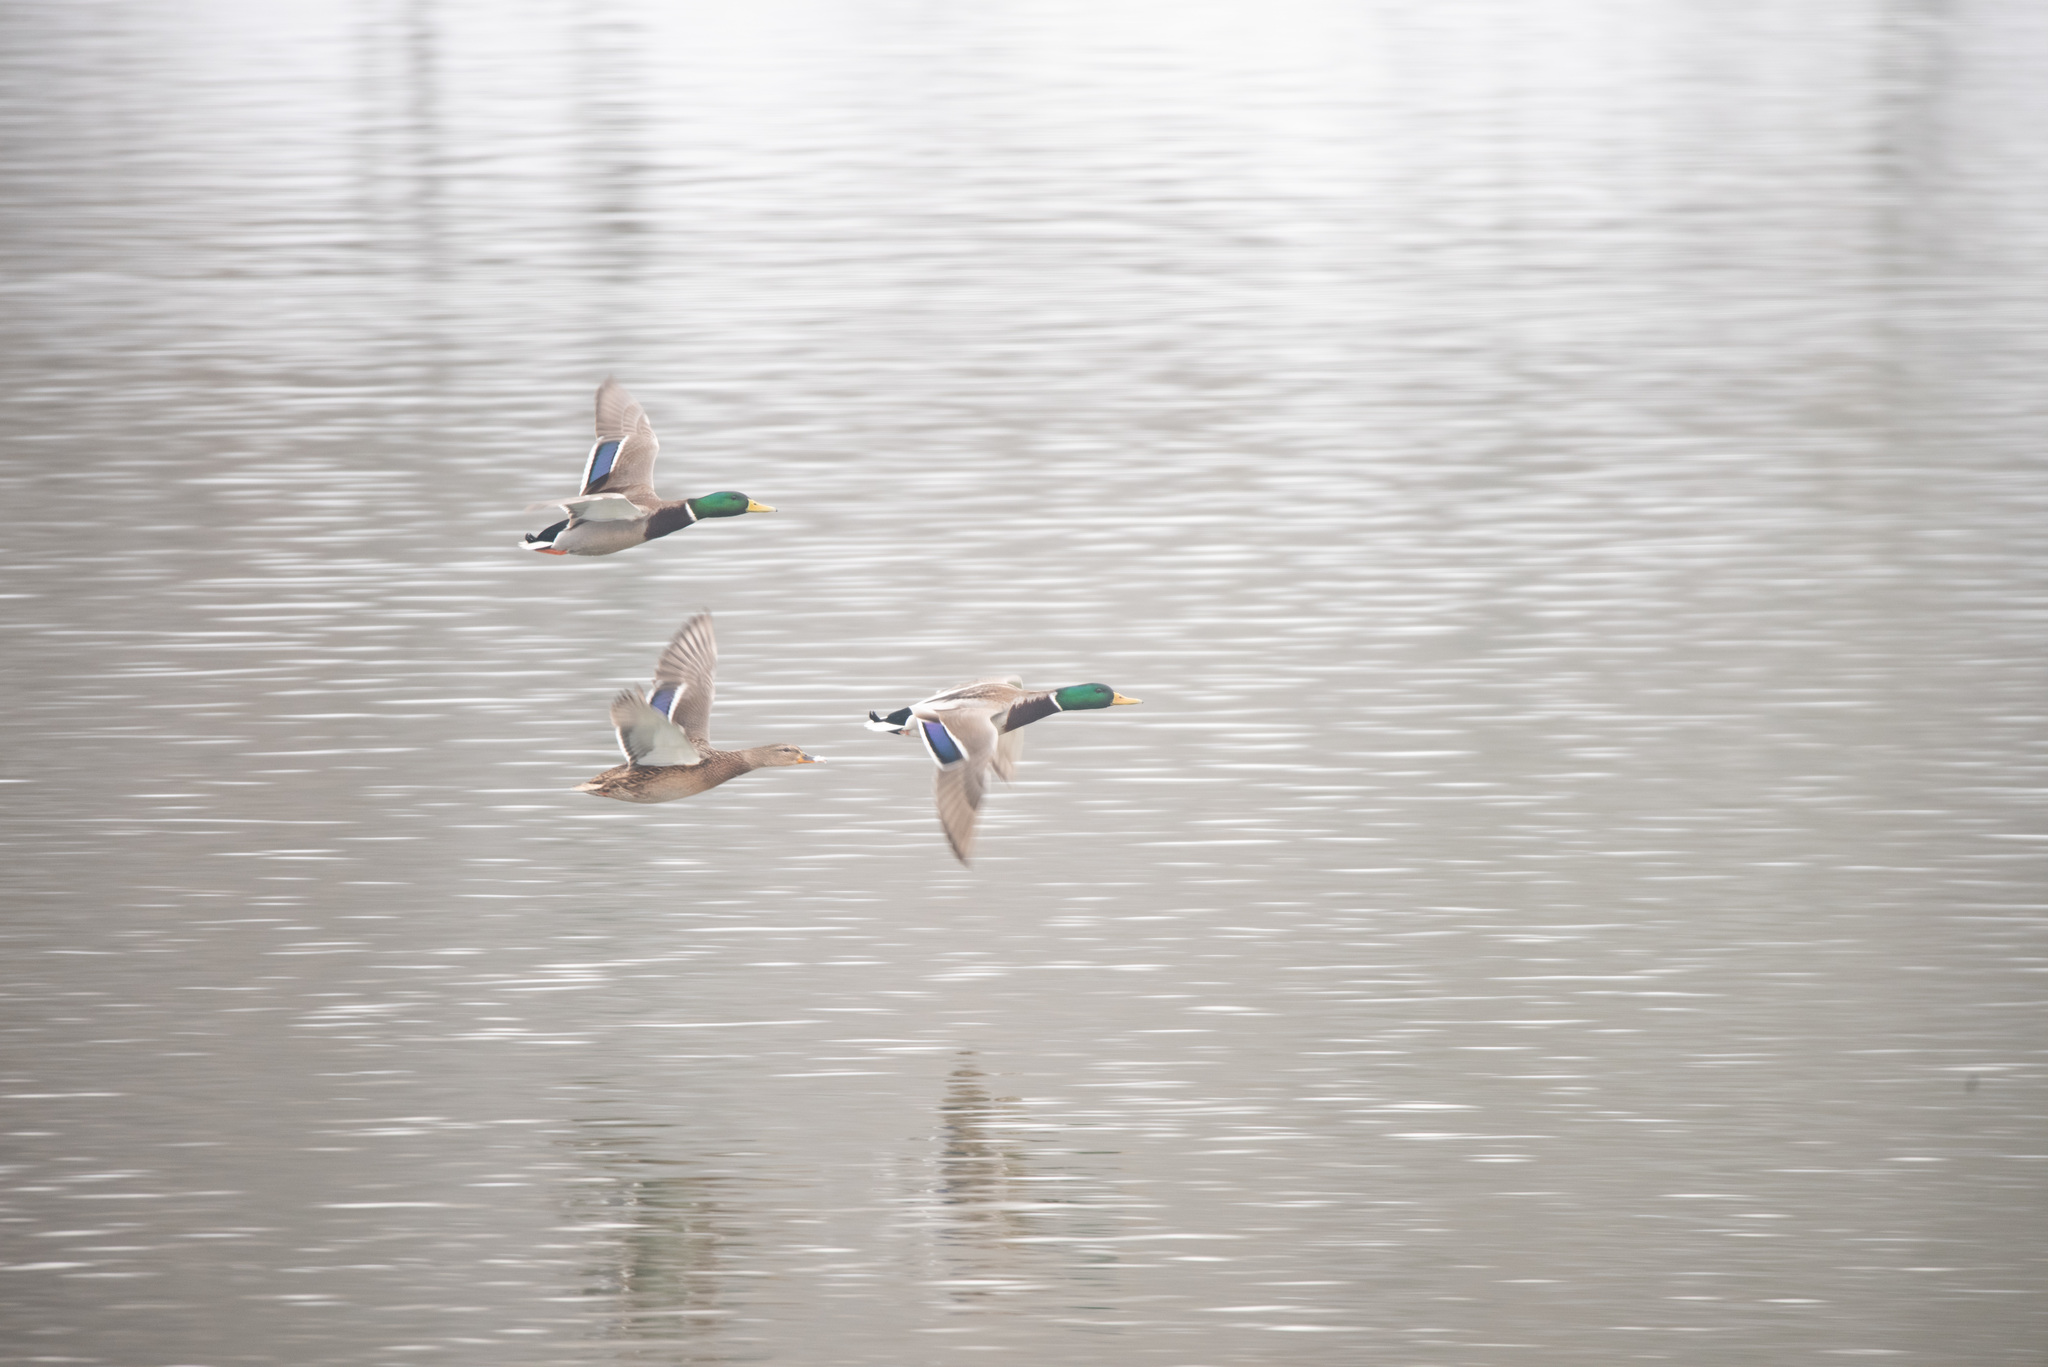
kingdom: Animalia
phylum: Chordata
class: Aves
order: Anseriformes
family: Anatidae
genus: Anas
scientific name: Anas platyrhynchos
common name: Mallard
